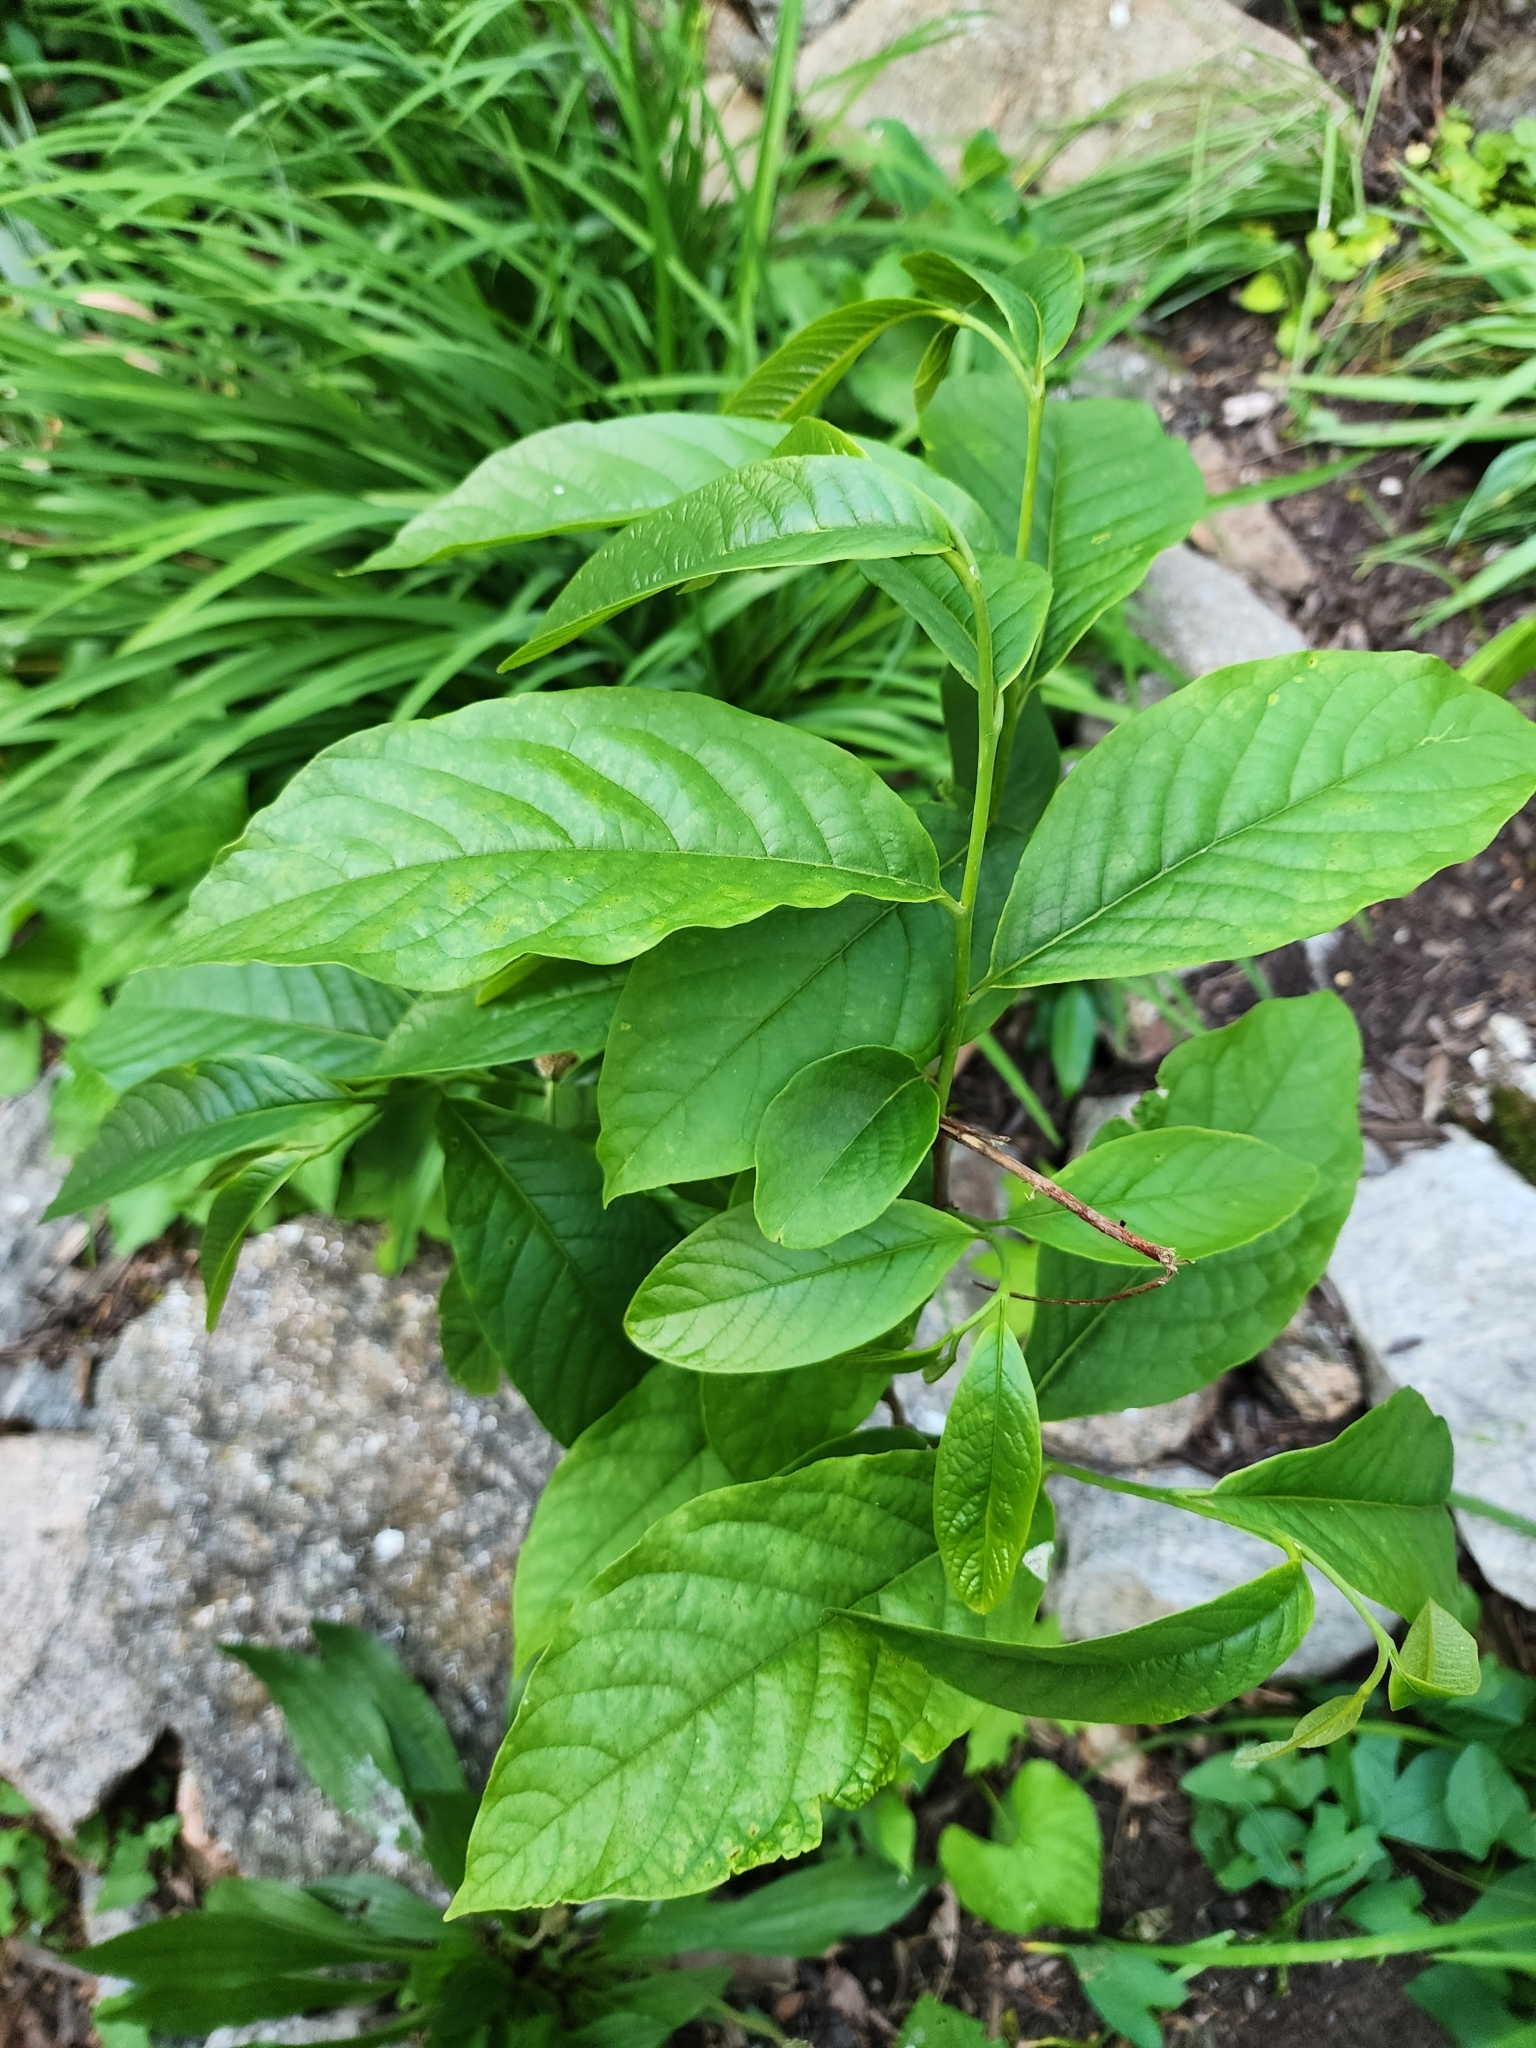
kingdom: Plantae
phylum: Tracheophyta
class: Magnoliopsida
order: Magnoliales
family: Annonaceae
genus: Asimina
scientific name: Asimina triloba
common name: Dog-banana
